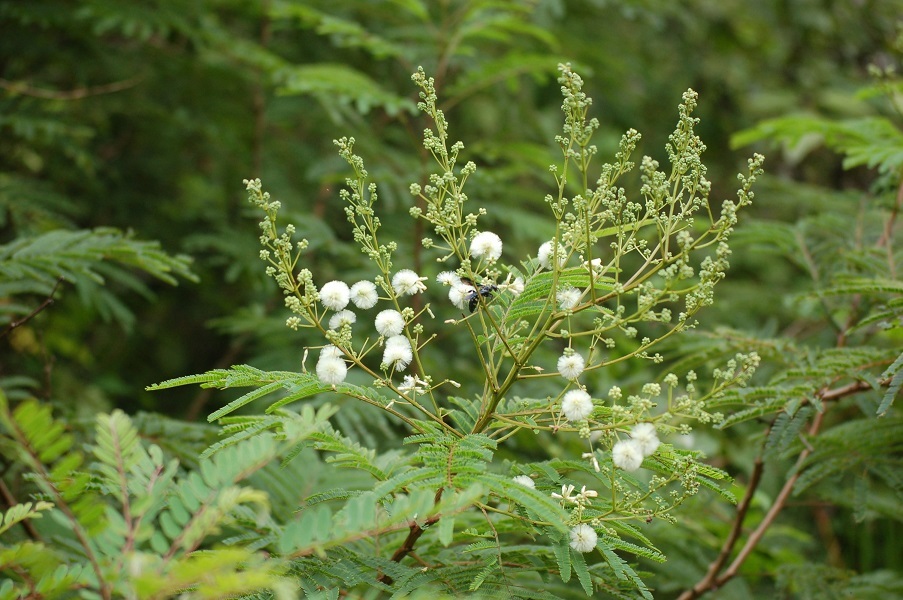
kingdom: Plantae
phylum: Tracheophyta
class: Magnoliopsida
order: Fabales
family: Fabaceae
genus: Acaciella
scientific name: Acaciella angustissima
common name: Prairie acacia
